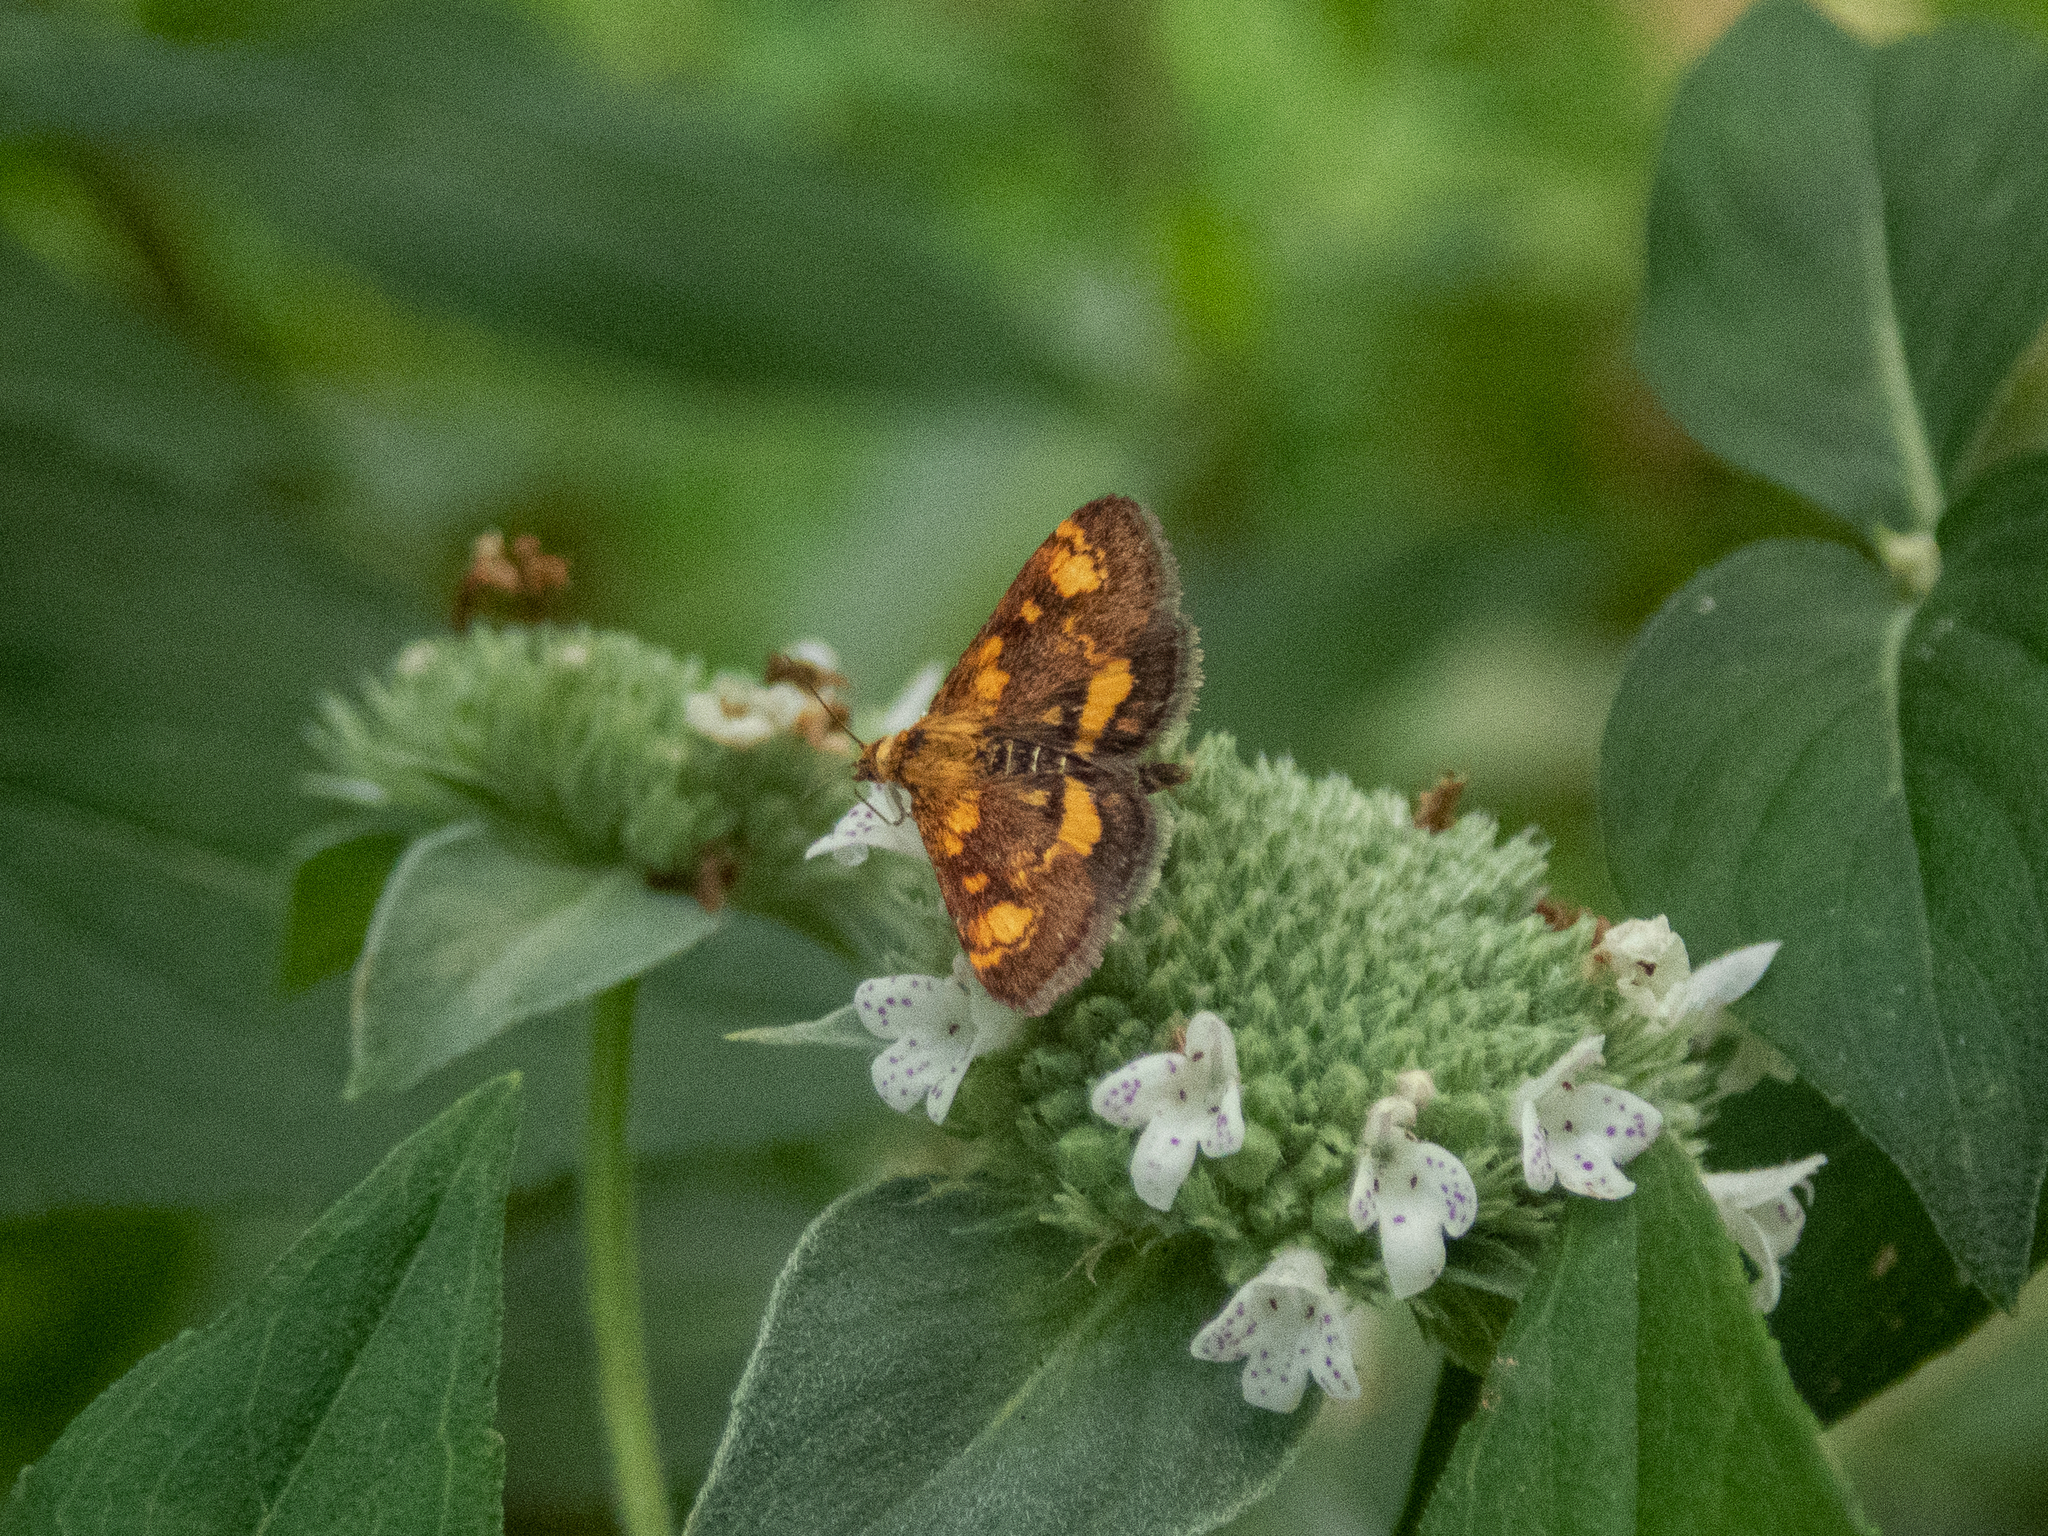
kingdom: Animalia
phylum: Arthropoda
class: Insecta
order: Lepidoptera
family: Crambidae
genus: Pyrausta
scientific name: Pyrausta orphisalis
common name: Orange mint moth
